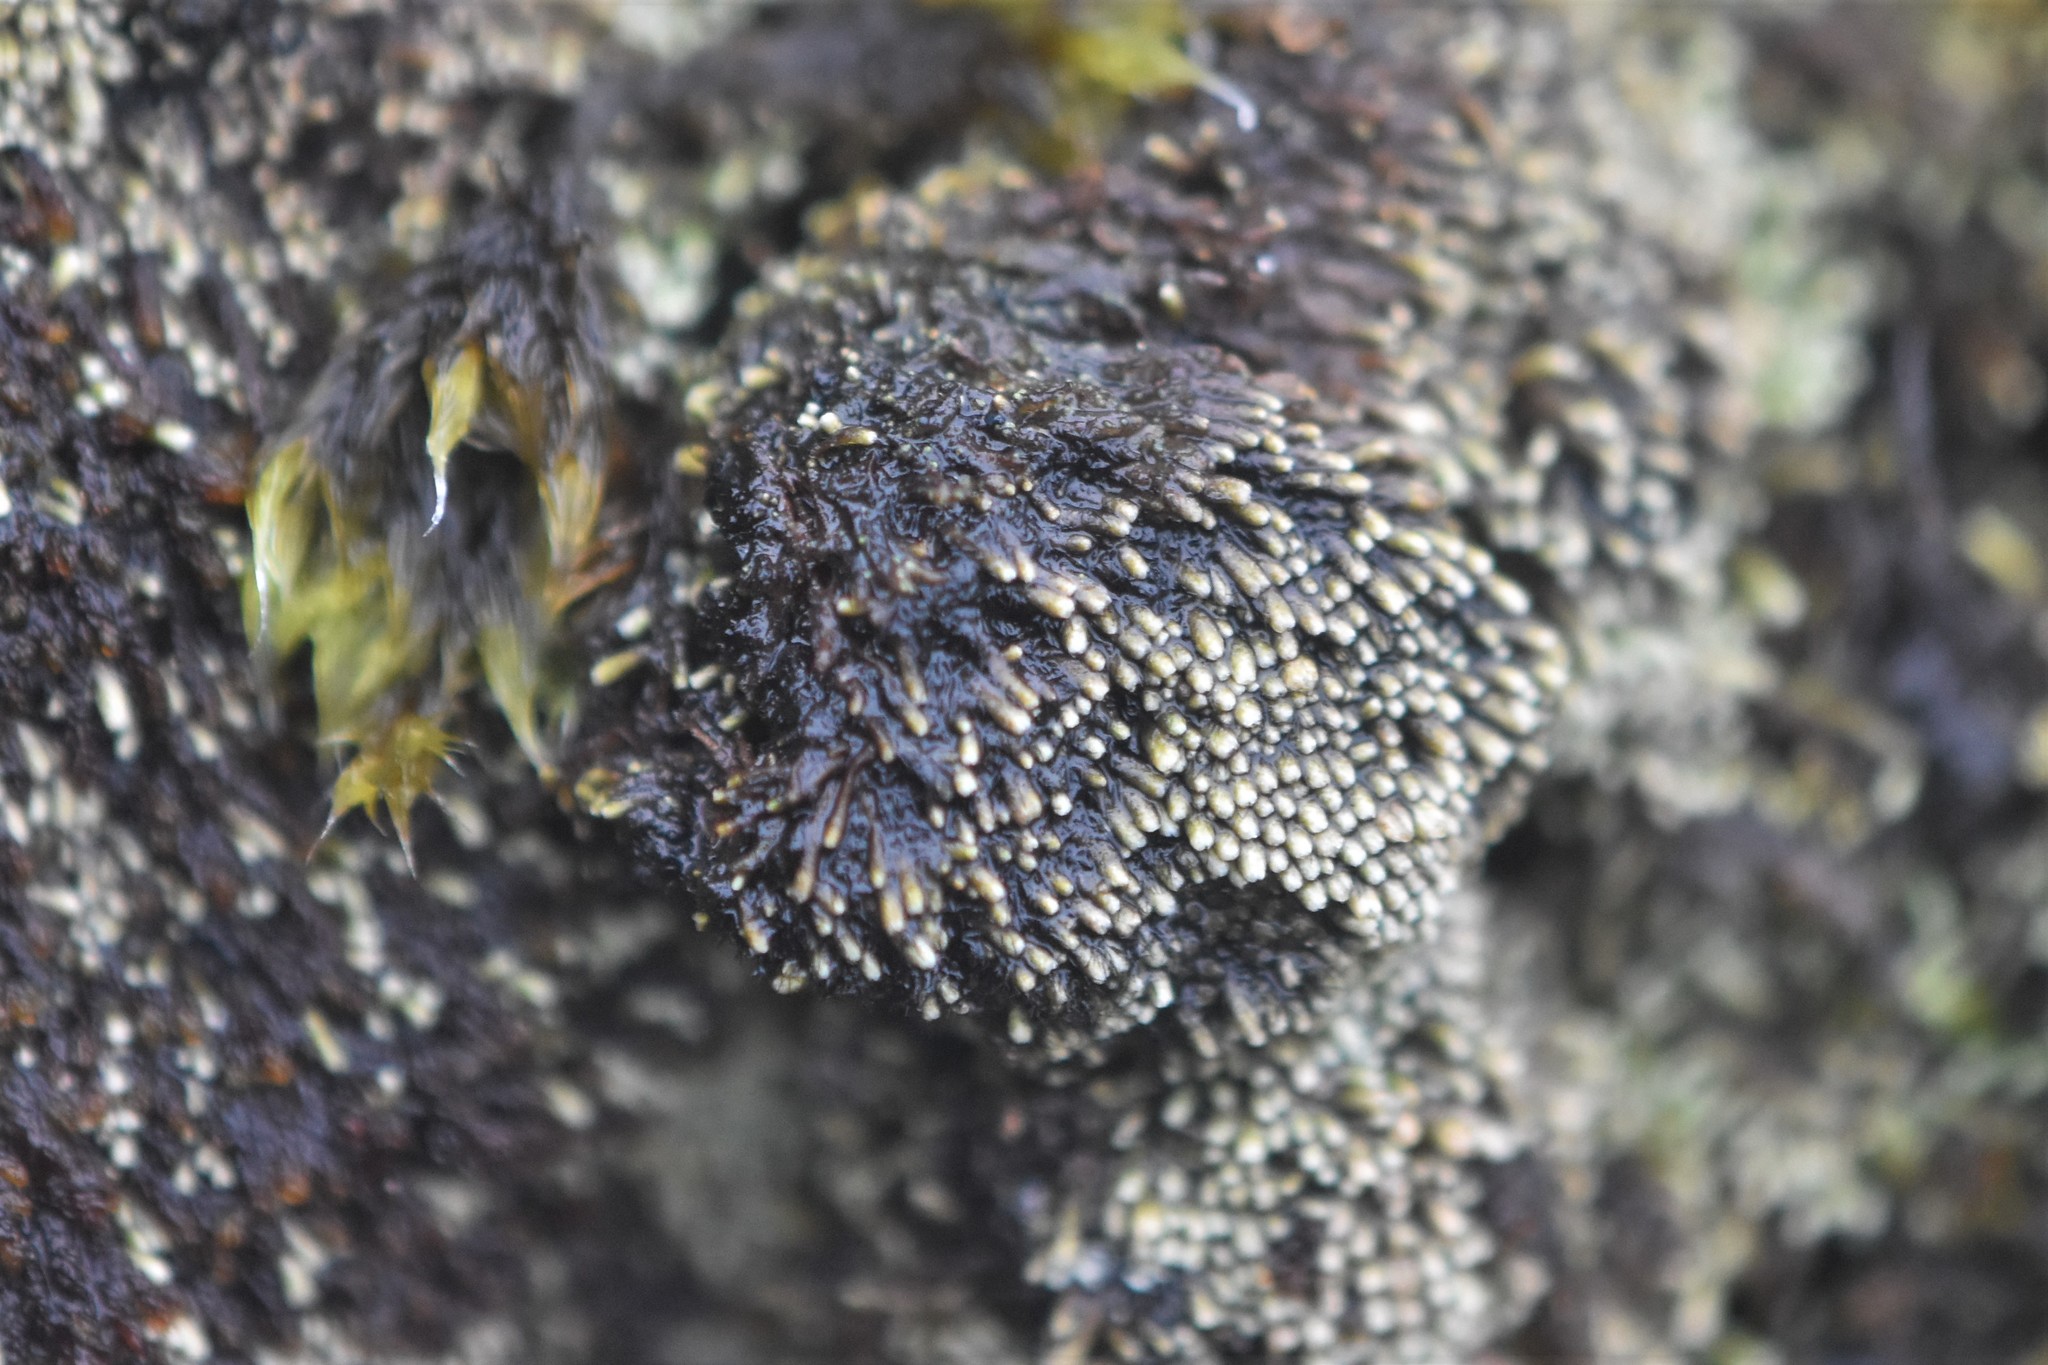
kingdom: Plantae
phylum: Marchantiophyta
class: Jungermanniopsida
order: Jungermanniales
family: Gymnomitriaceae
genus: Gymnomitrion
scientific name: Gymnomitrion obtusum
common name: White frostwort
